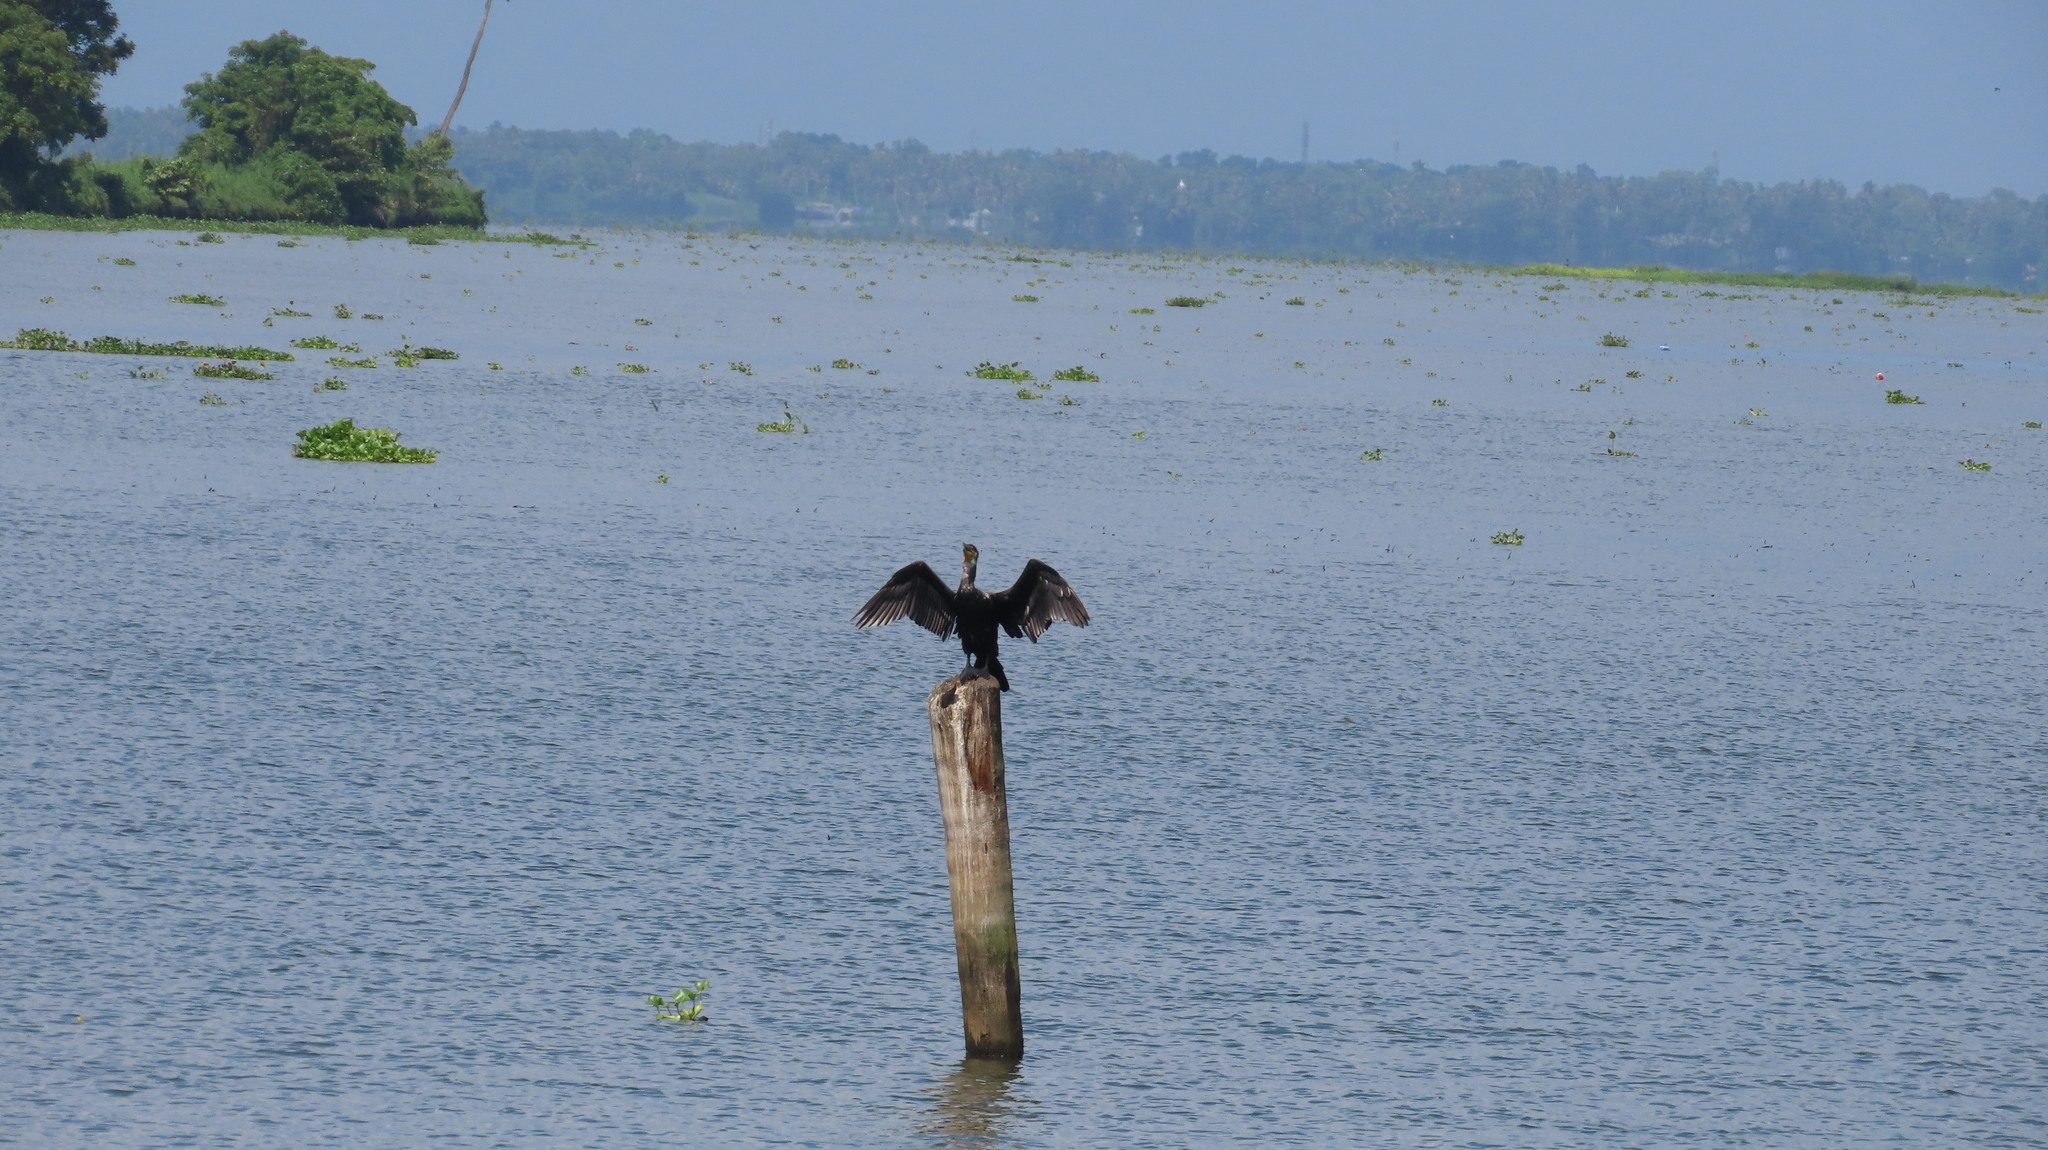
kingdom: Animalia
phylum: Chordata
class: Aves
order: Suliformes
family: Phalacrocoracidae
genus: Phalacrocorax
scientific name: Phalacrocorax carbo
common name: Great cormorant
